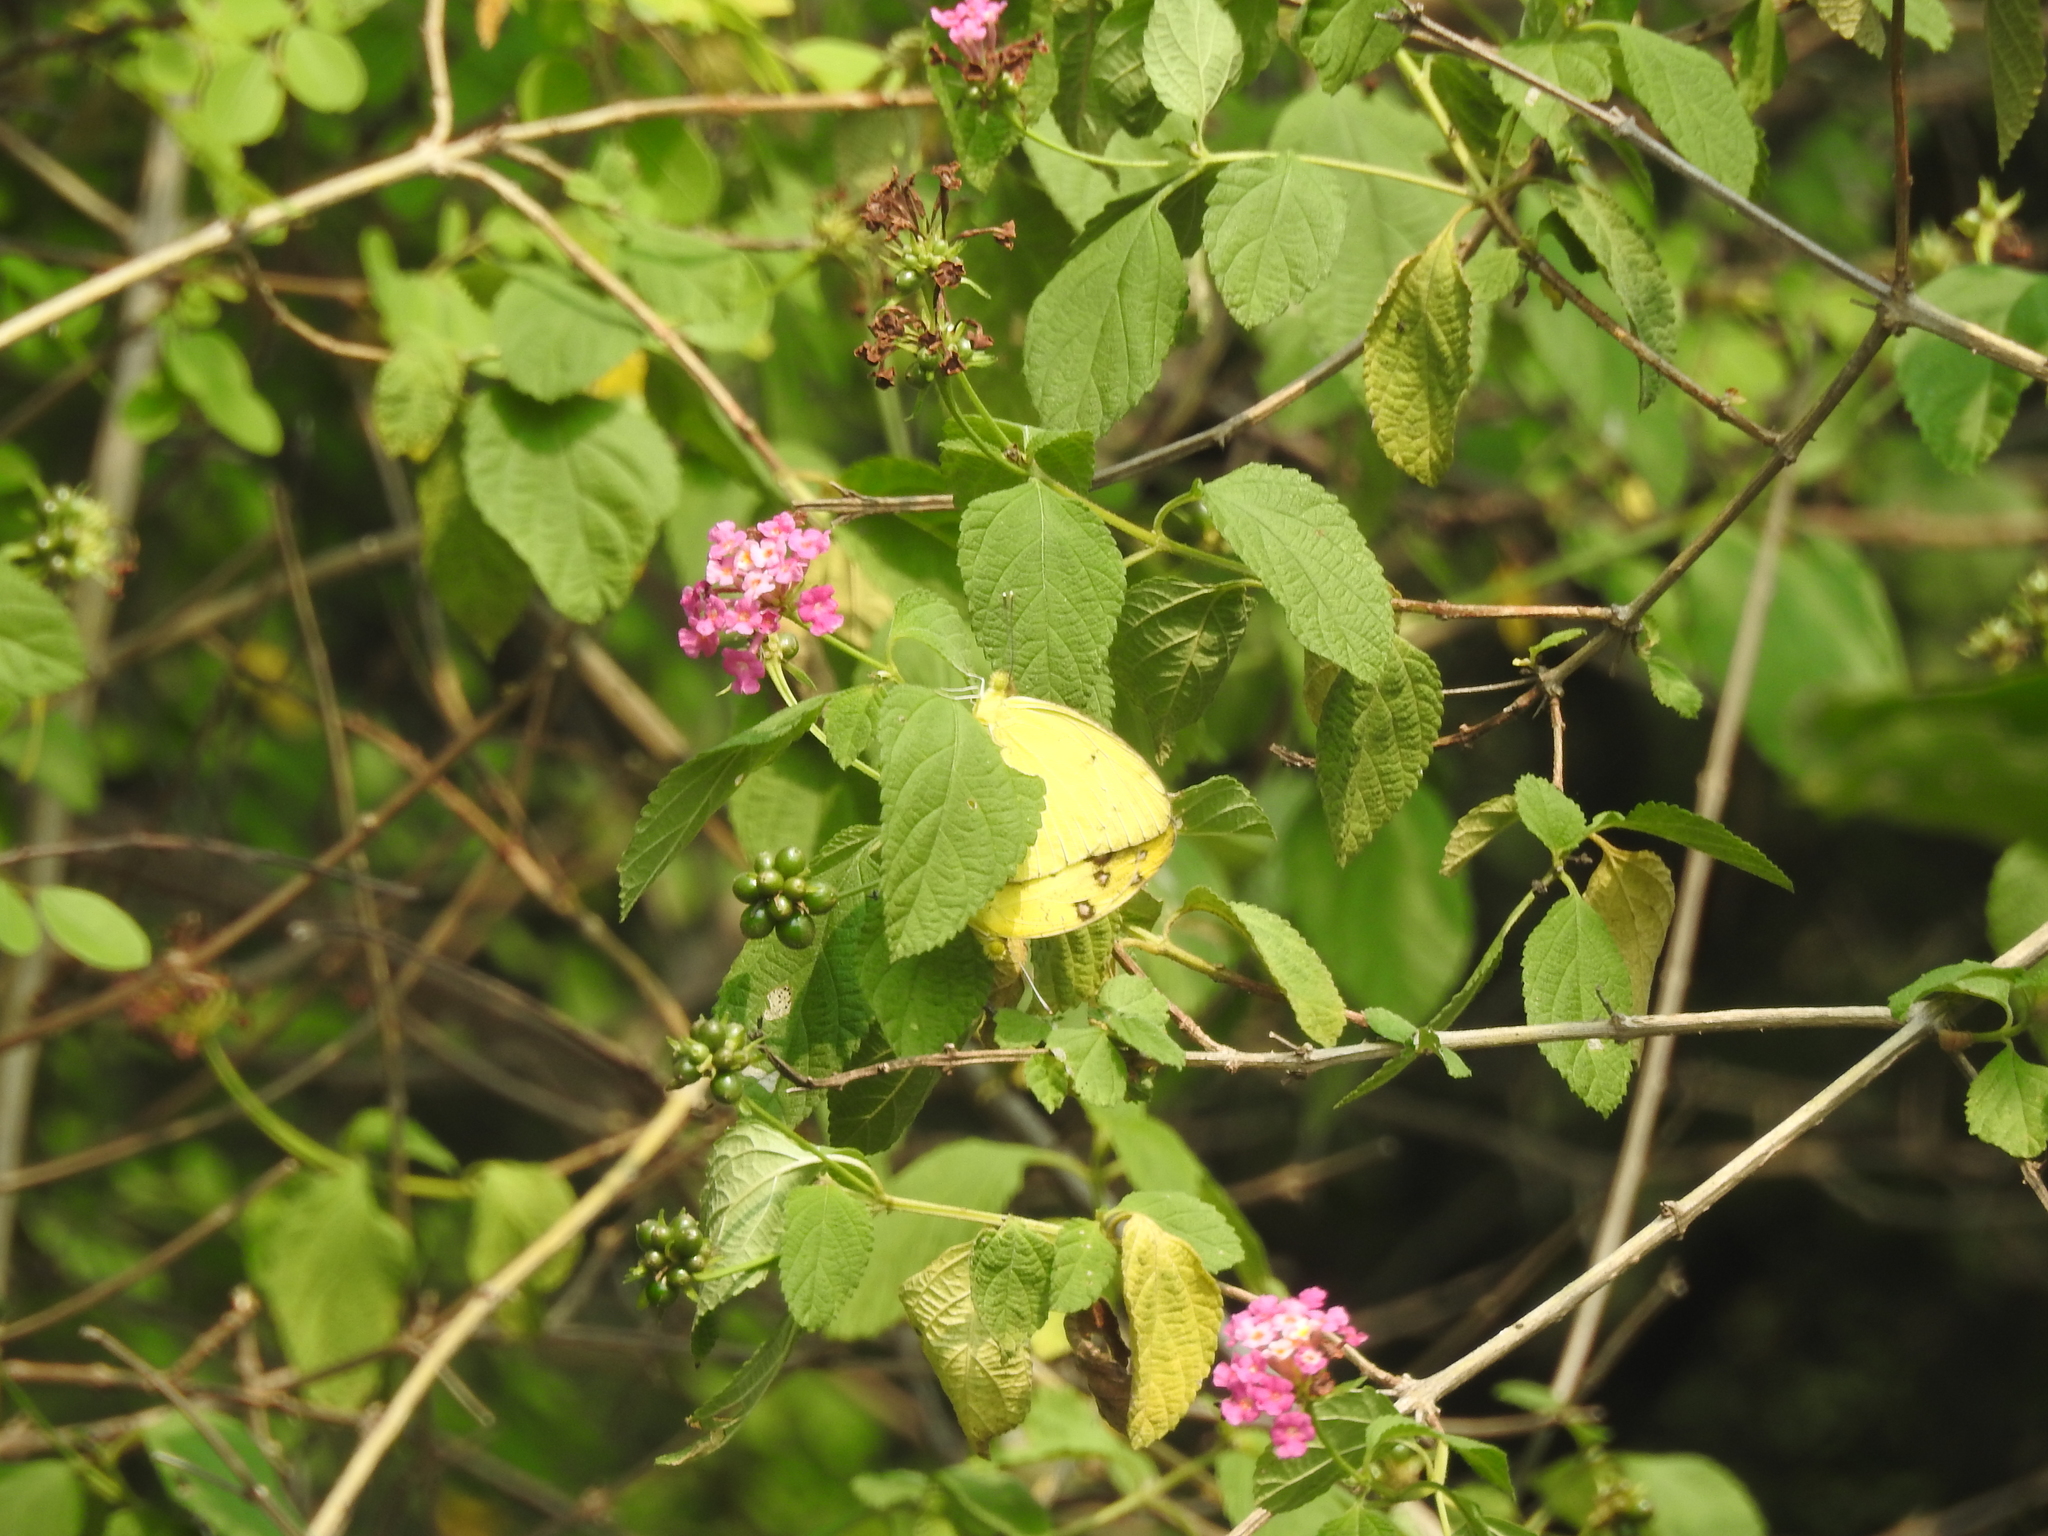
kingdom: Plantae
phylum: Tracheophyta
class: Magnoliopsida
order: Lamiales
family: Verbenaceae
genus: Lantana
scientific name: Lantana camara
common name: Lantana
